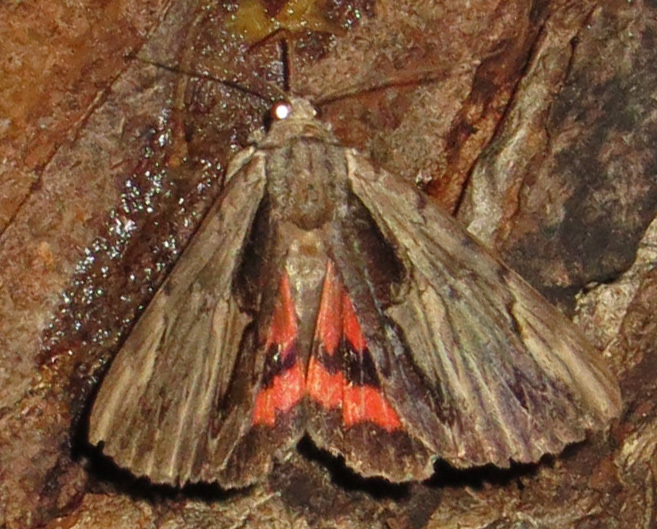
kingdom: Animalia
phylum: Arthropoda
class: Insecta
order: Lepidoptera
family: Erebidae
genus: Catocala
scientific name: Catocala ultronia
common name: Ultronia underwing
